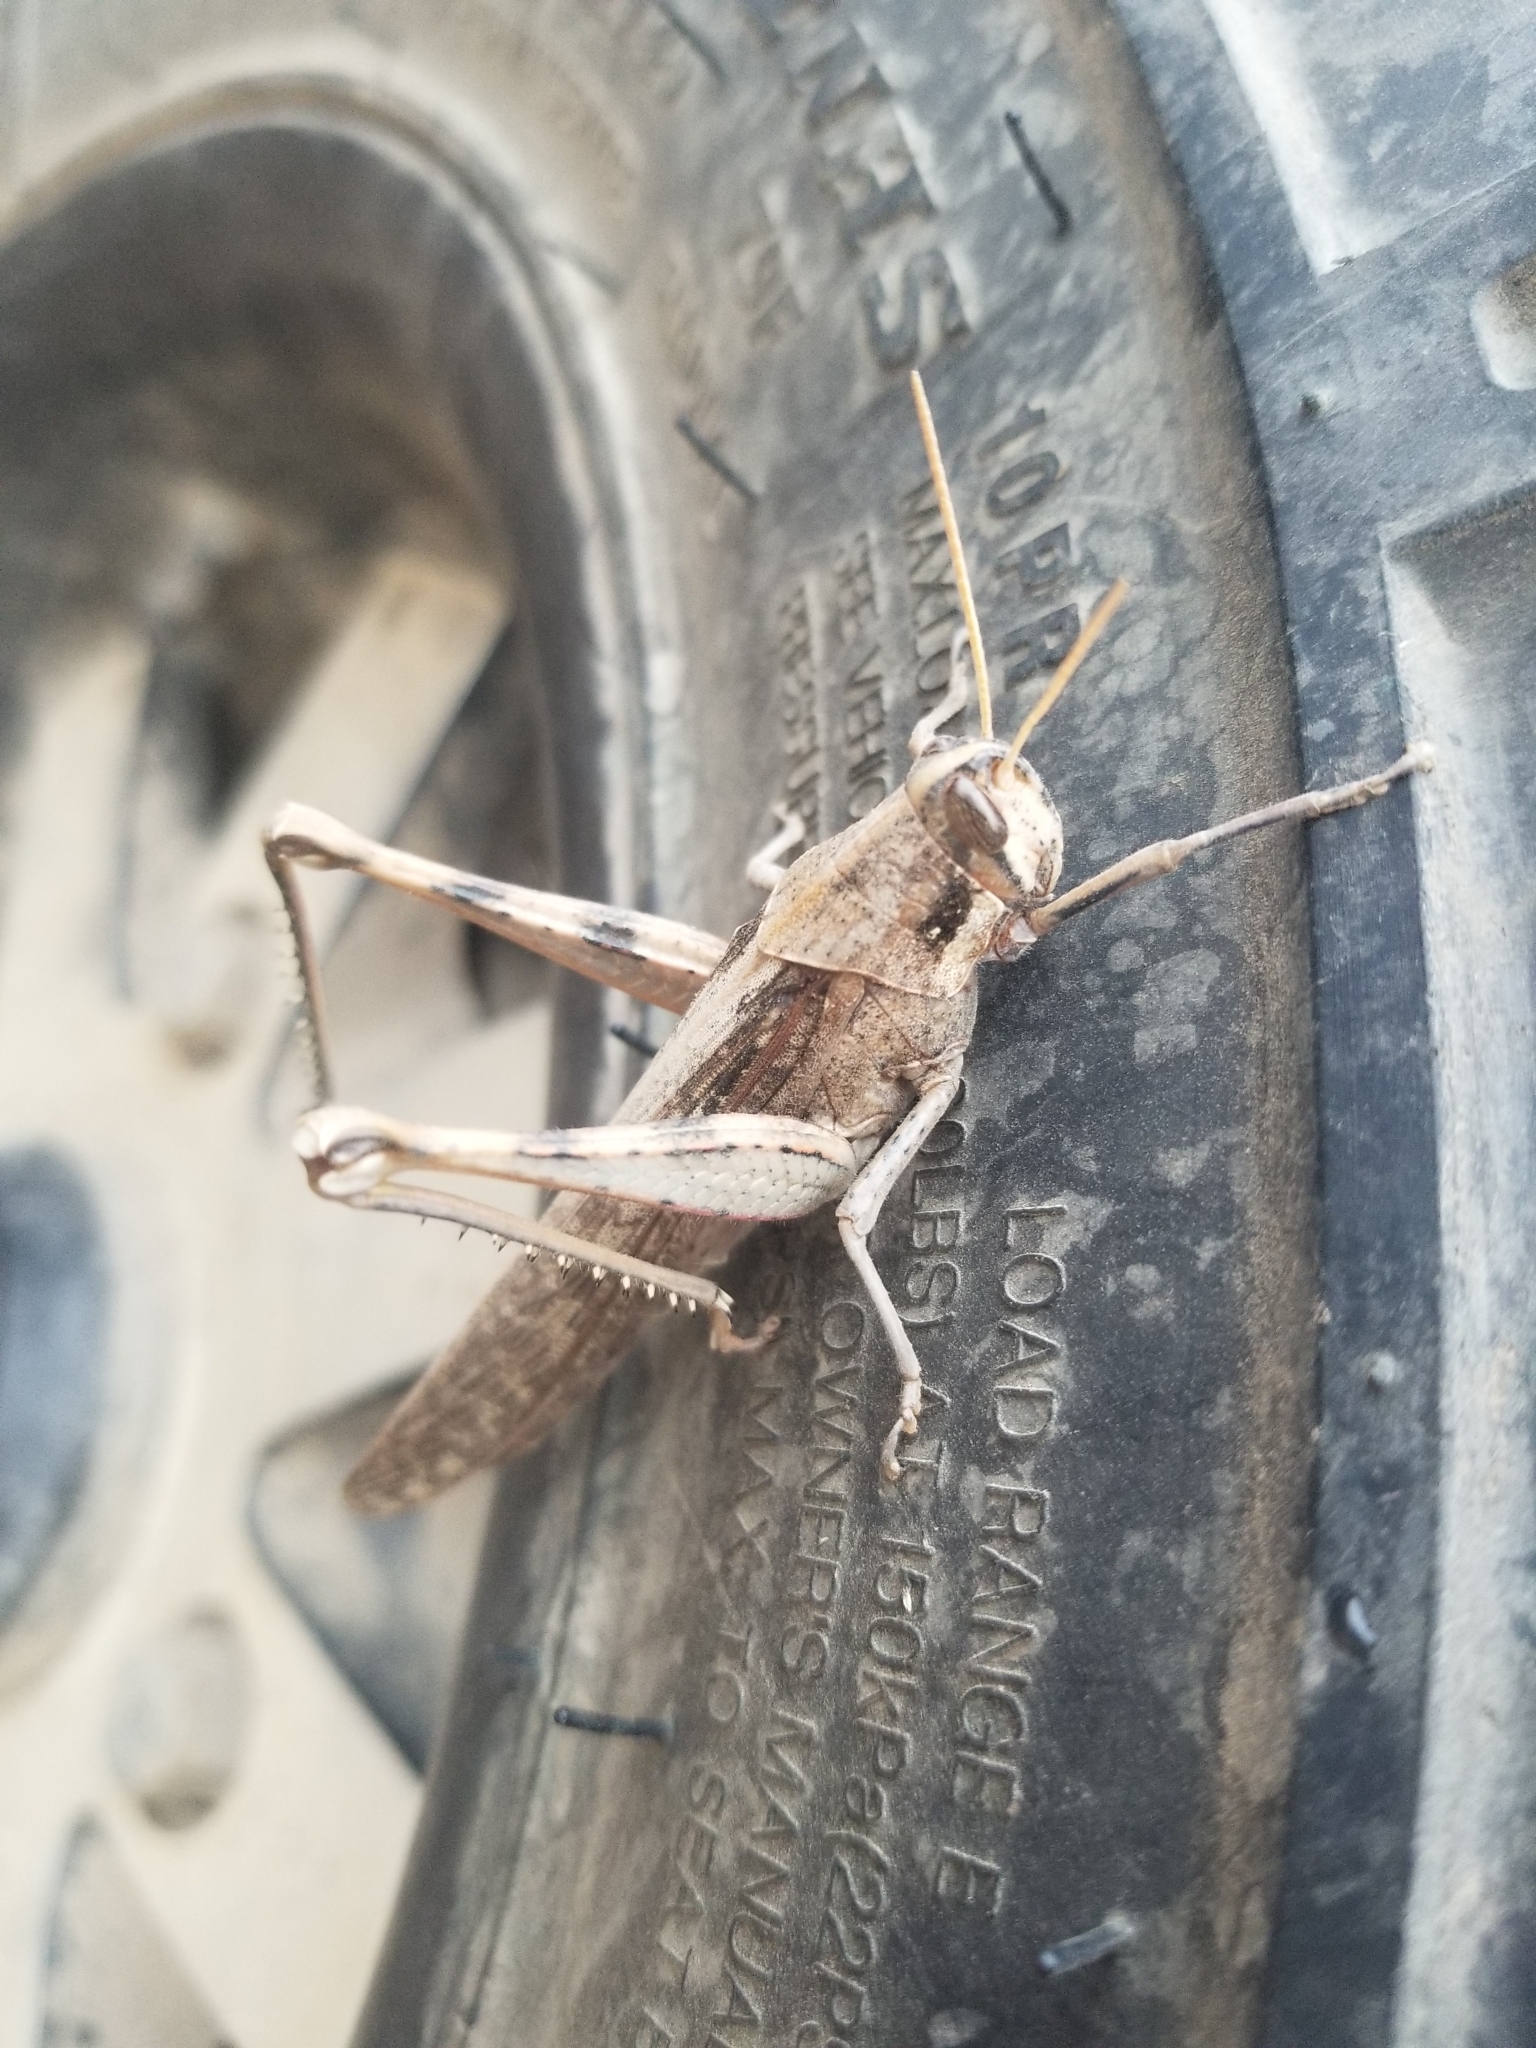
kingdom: Animalia
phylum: Arthropoda
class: Insecta
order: Orthoptera
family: Acrididae
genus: Schistocerca
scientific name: Schistocerca nitens
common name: Vagrant grasshopper
